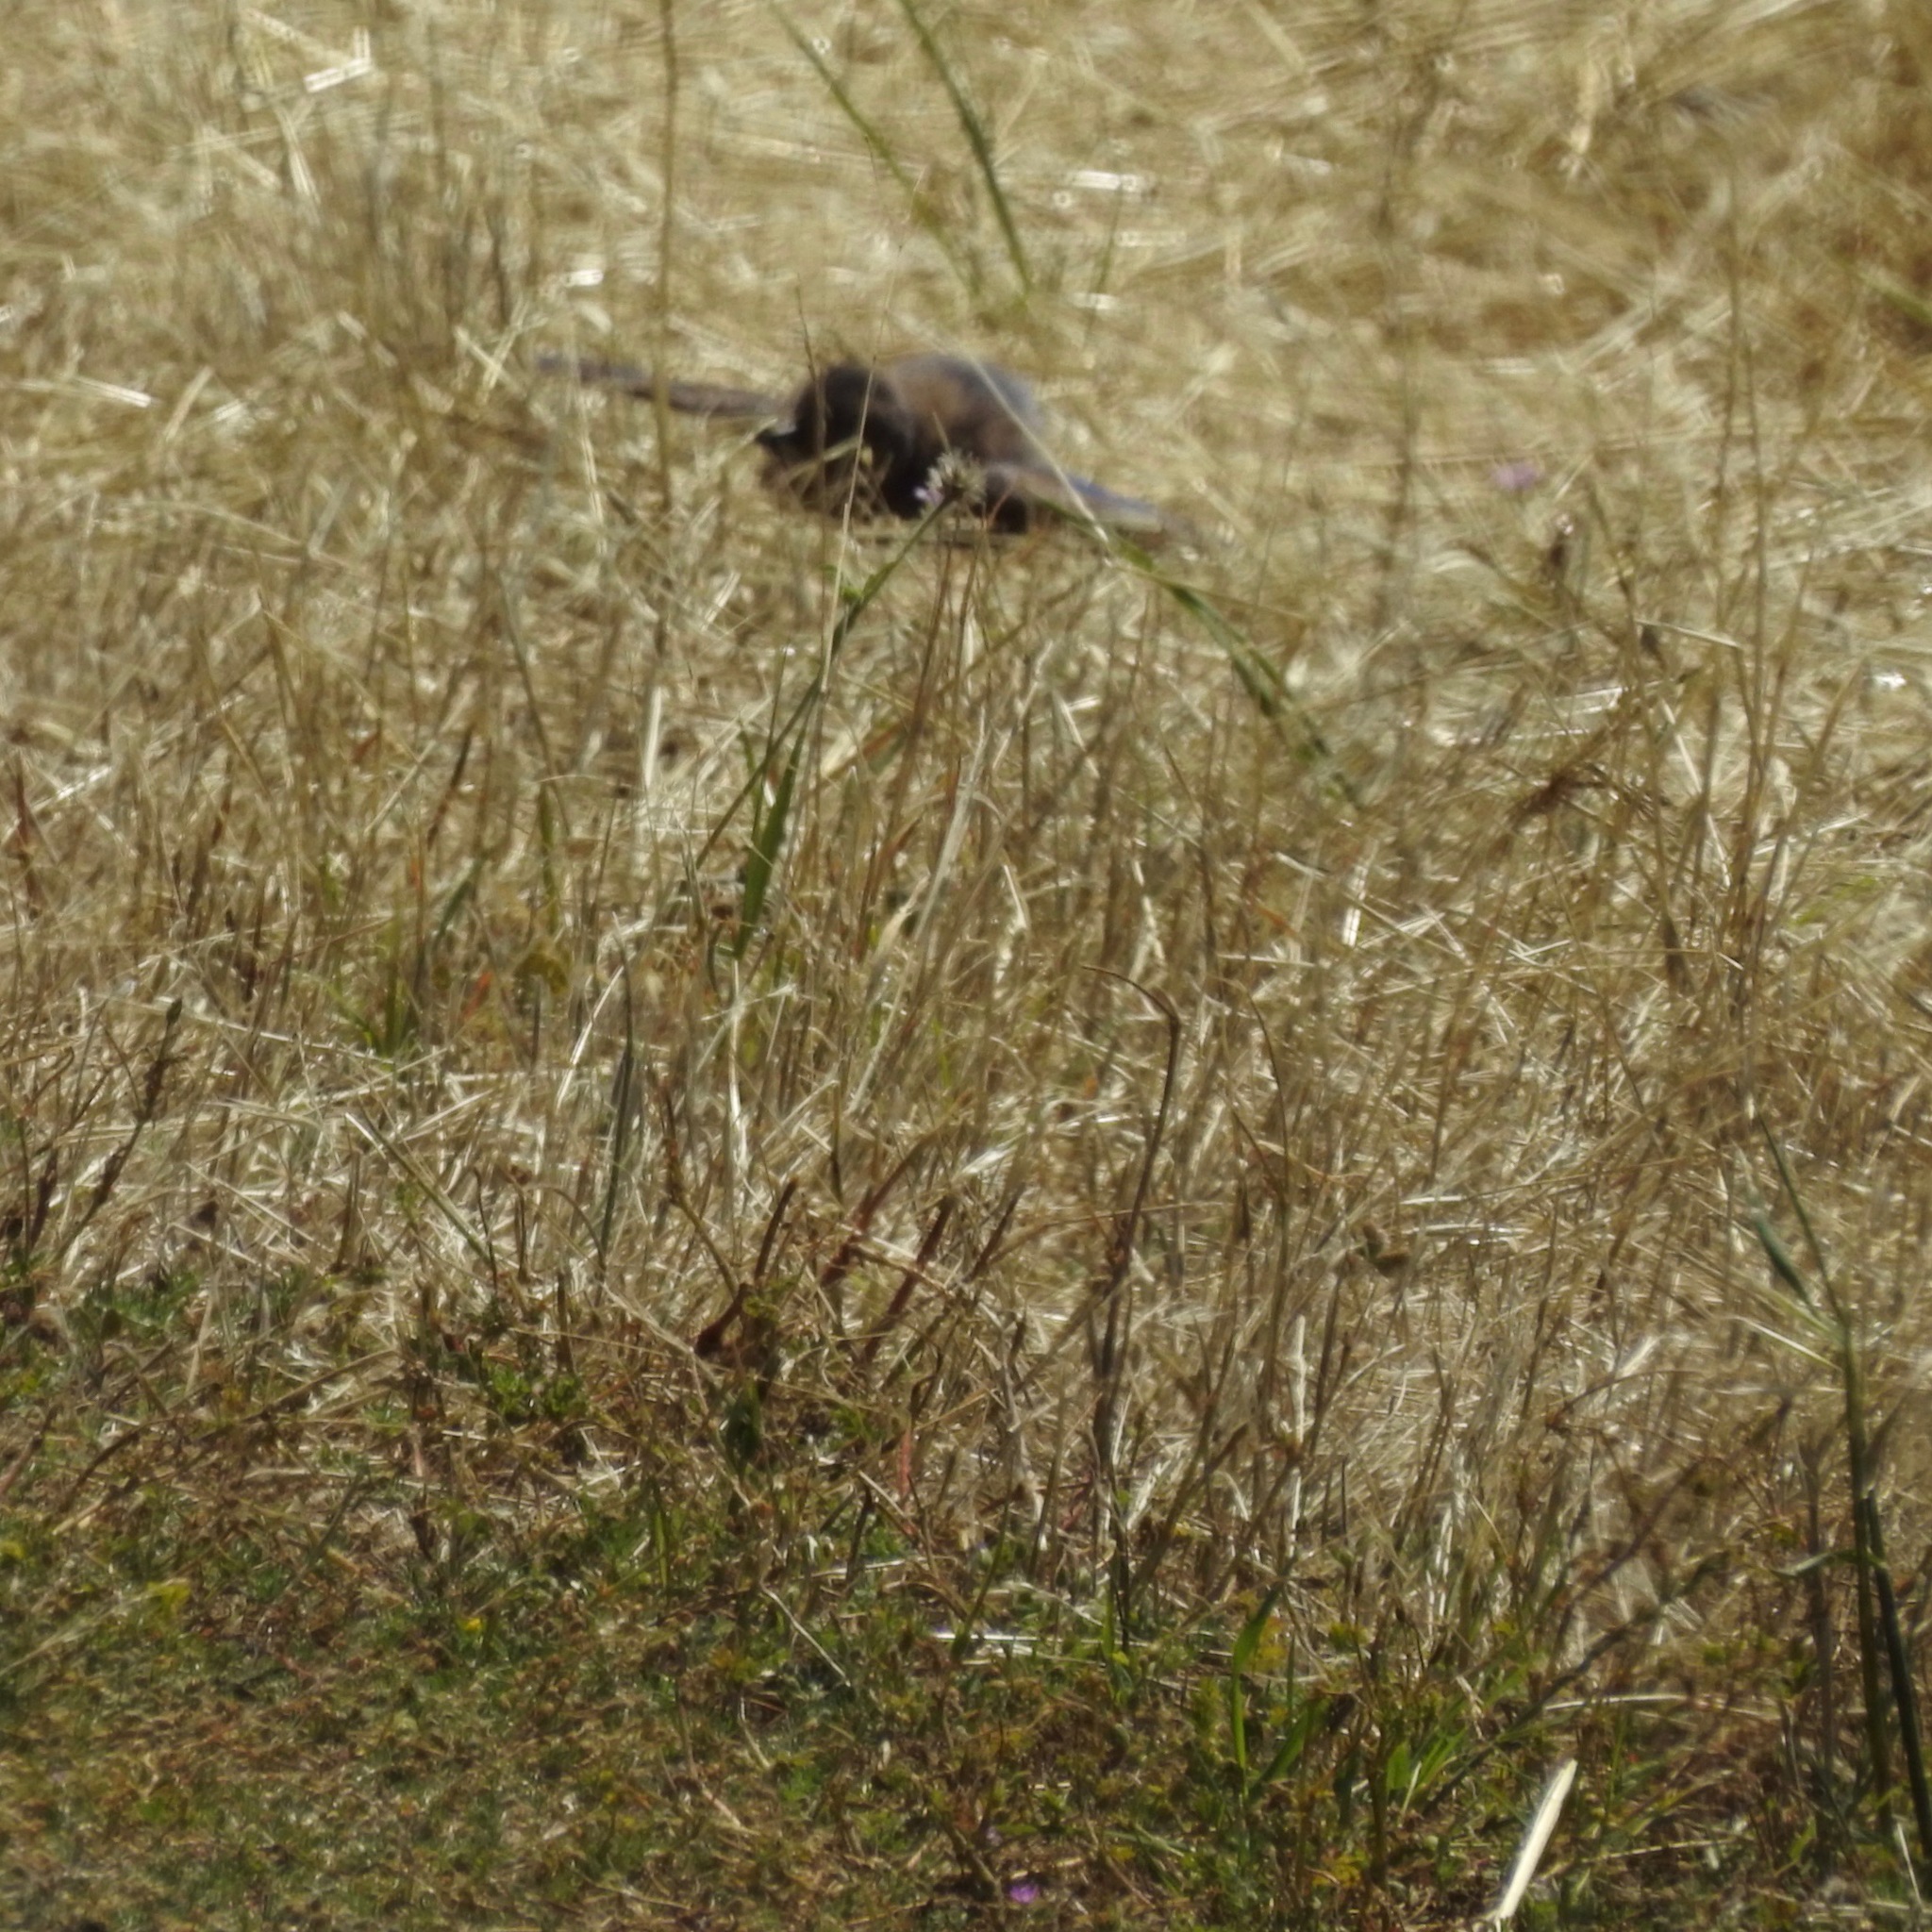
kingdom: Animalia
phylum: Chordata
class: Aves
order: Passeriformes
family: Turdidae
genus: Sialia
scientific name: Sialia mexicana
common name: Western bluebird
